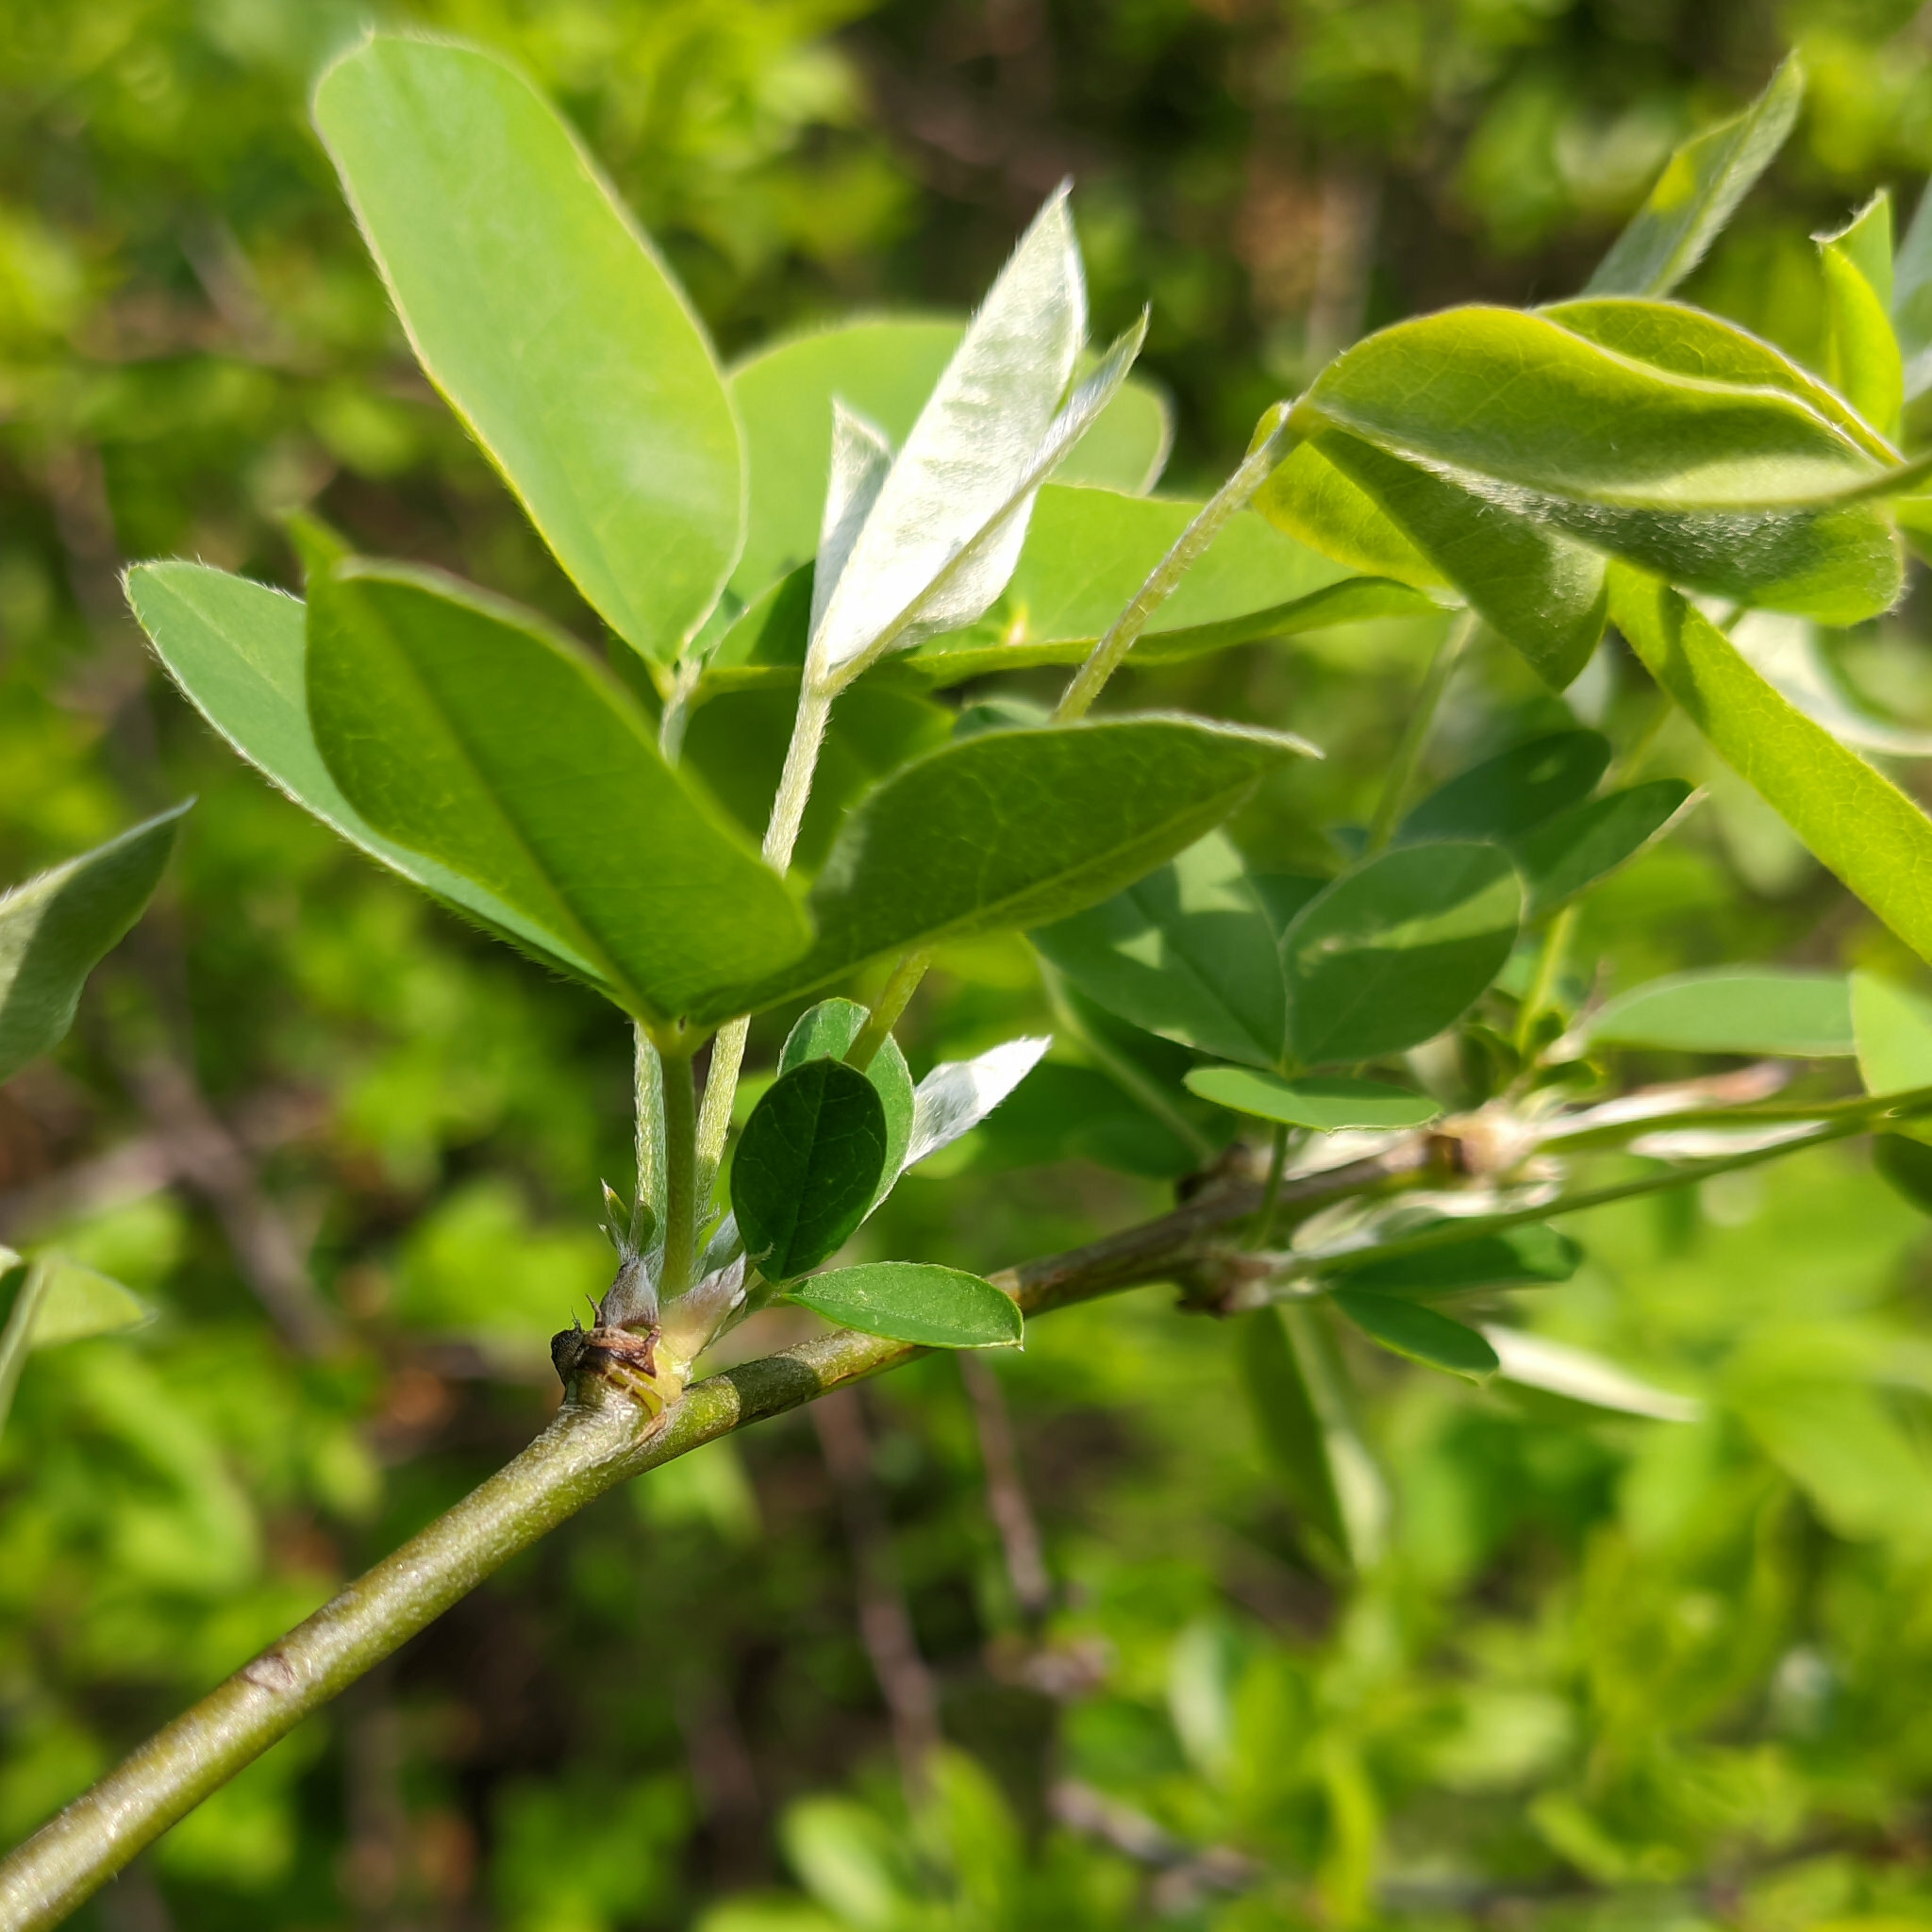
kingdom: Plantae
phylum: Tracheophyta
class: Magnoliopsida
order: Fabales
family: Fabaceae
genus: Laburnum
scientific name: Laburnum anagyroides
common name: Laburnum
